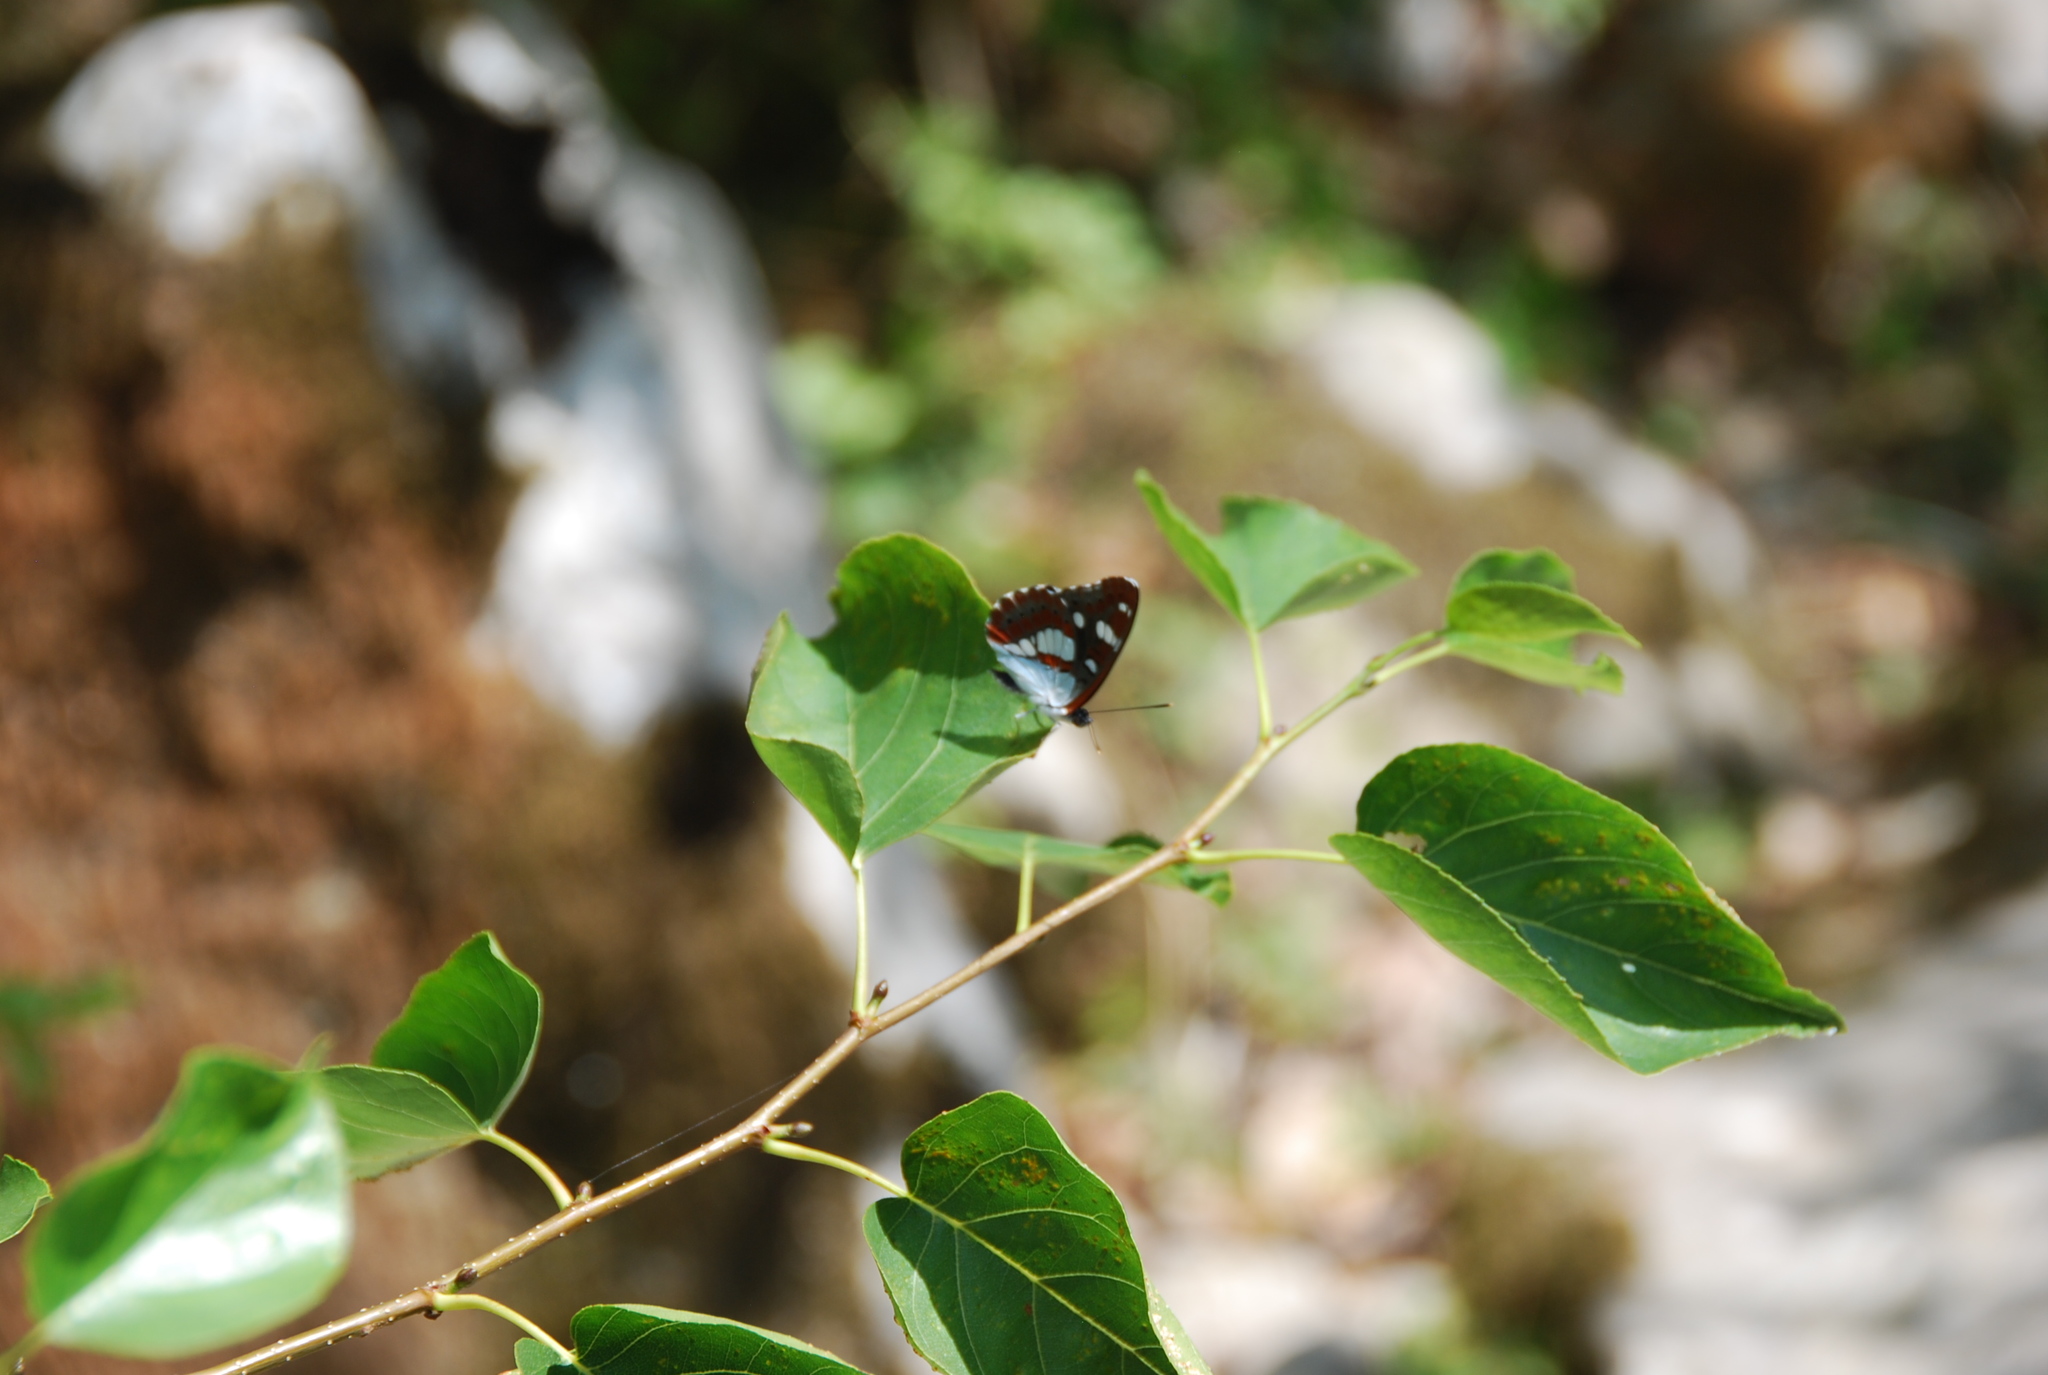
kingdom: Animalia
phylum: Arthropoda
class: Insecta
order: Lepidoptera
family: Nymphalidae
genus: Limenitis
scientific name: Limenitis reducta
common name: Southern white admiral
